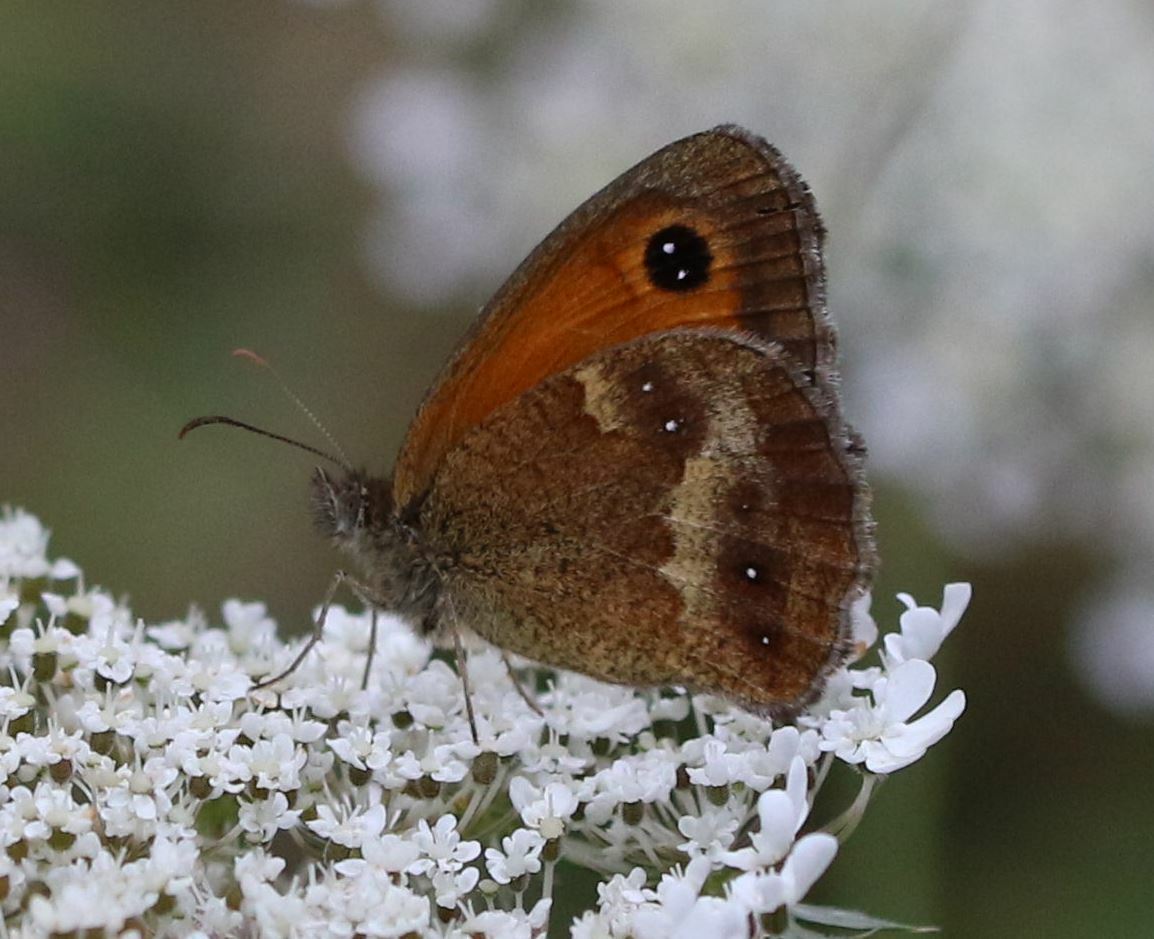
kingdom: Animalia
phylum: Arthropoda
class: Insecta
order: Lepidoptera
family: Nymphalidae
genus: Pyronia
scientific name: Pyronia tithonus
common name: Gatekeeper
